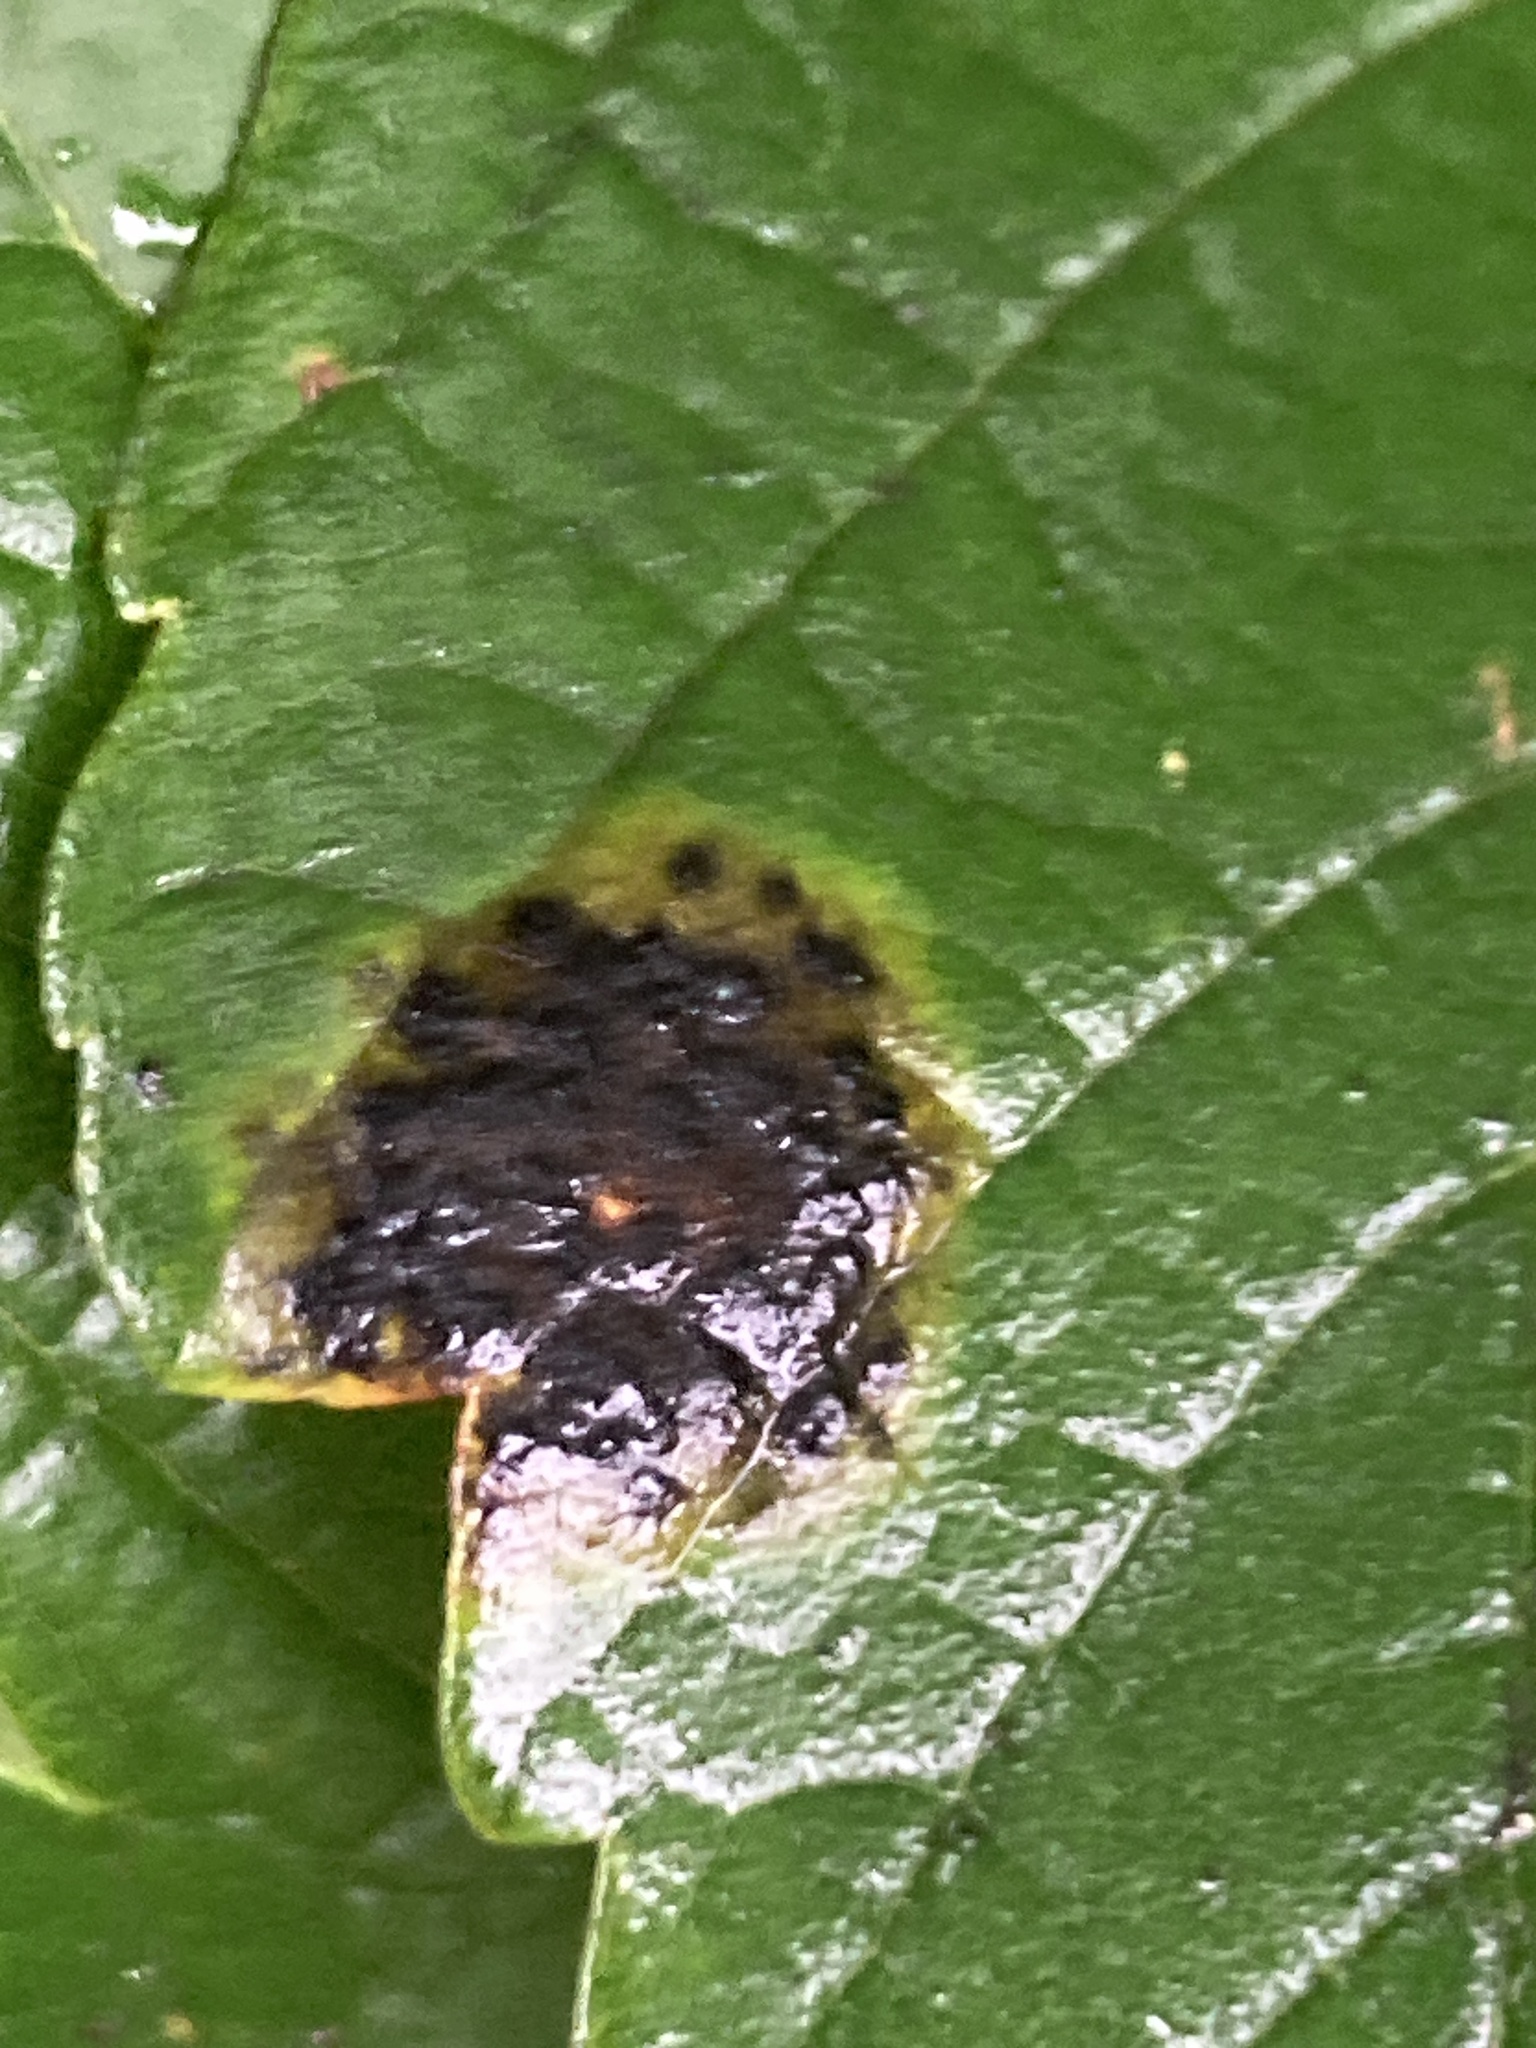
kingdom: Fungi
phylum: Ascomycota
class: Leotiomycetes
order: Rhytismatales
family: Rhytismataceae
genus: Rhytisma
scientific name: Rhytisma acerinum
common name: European tar spot
